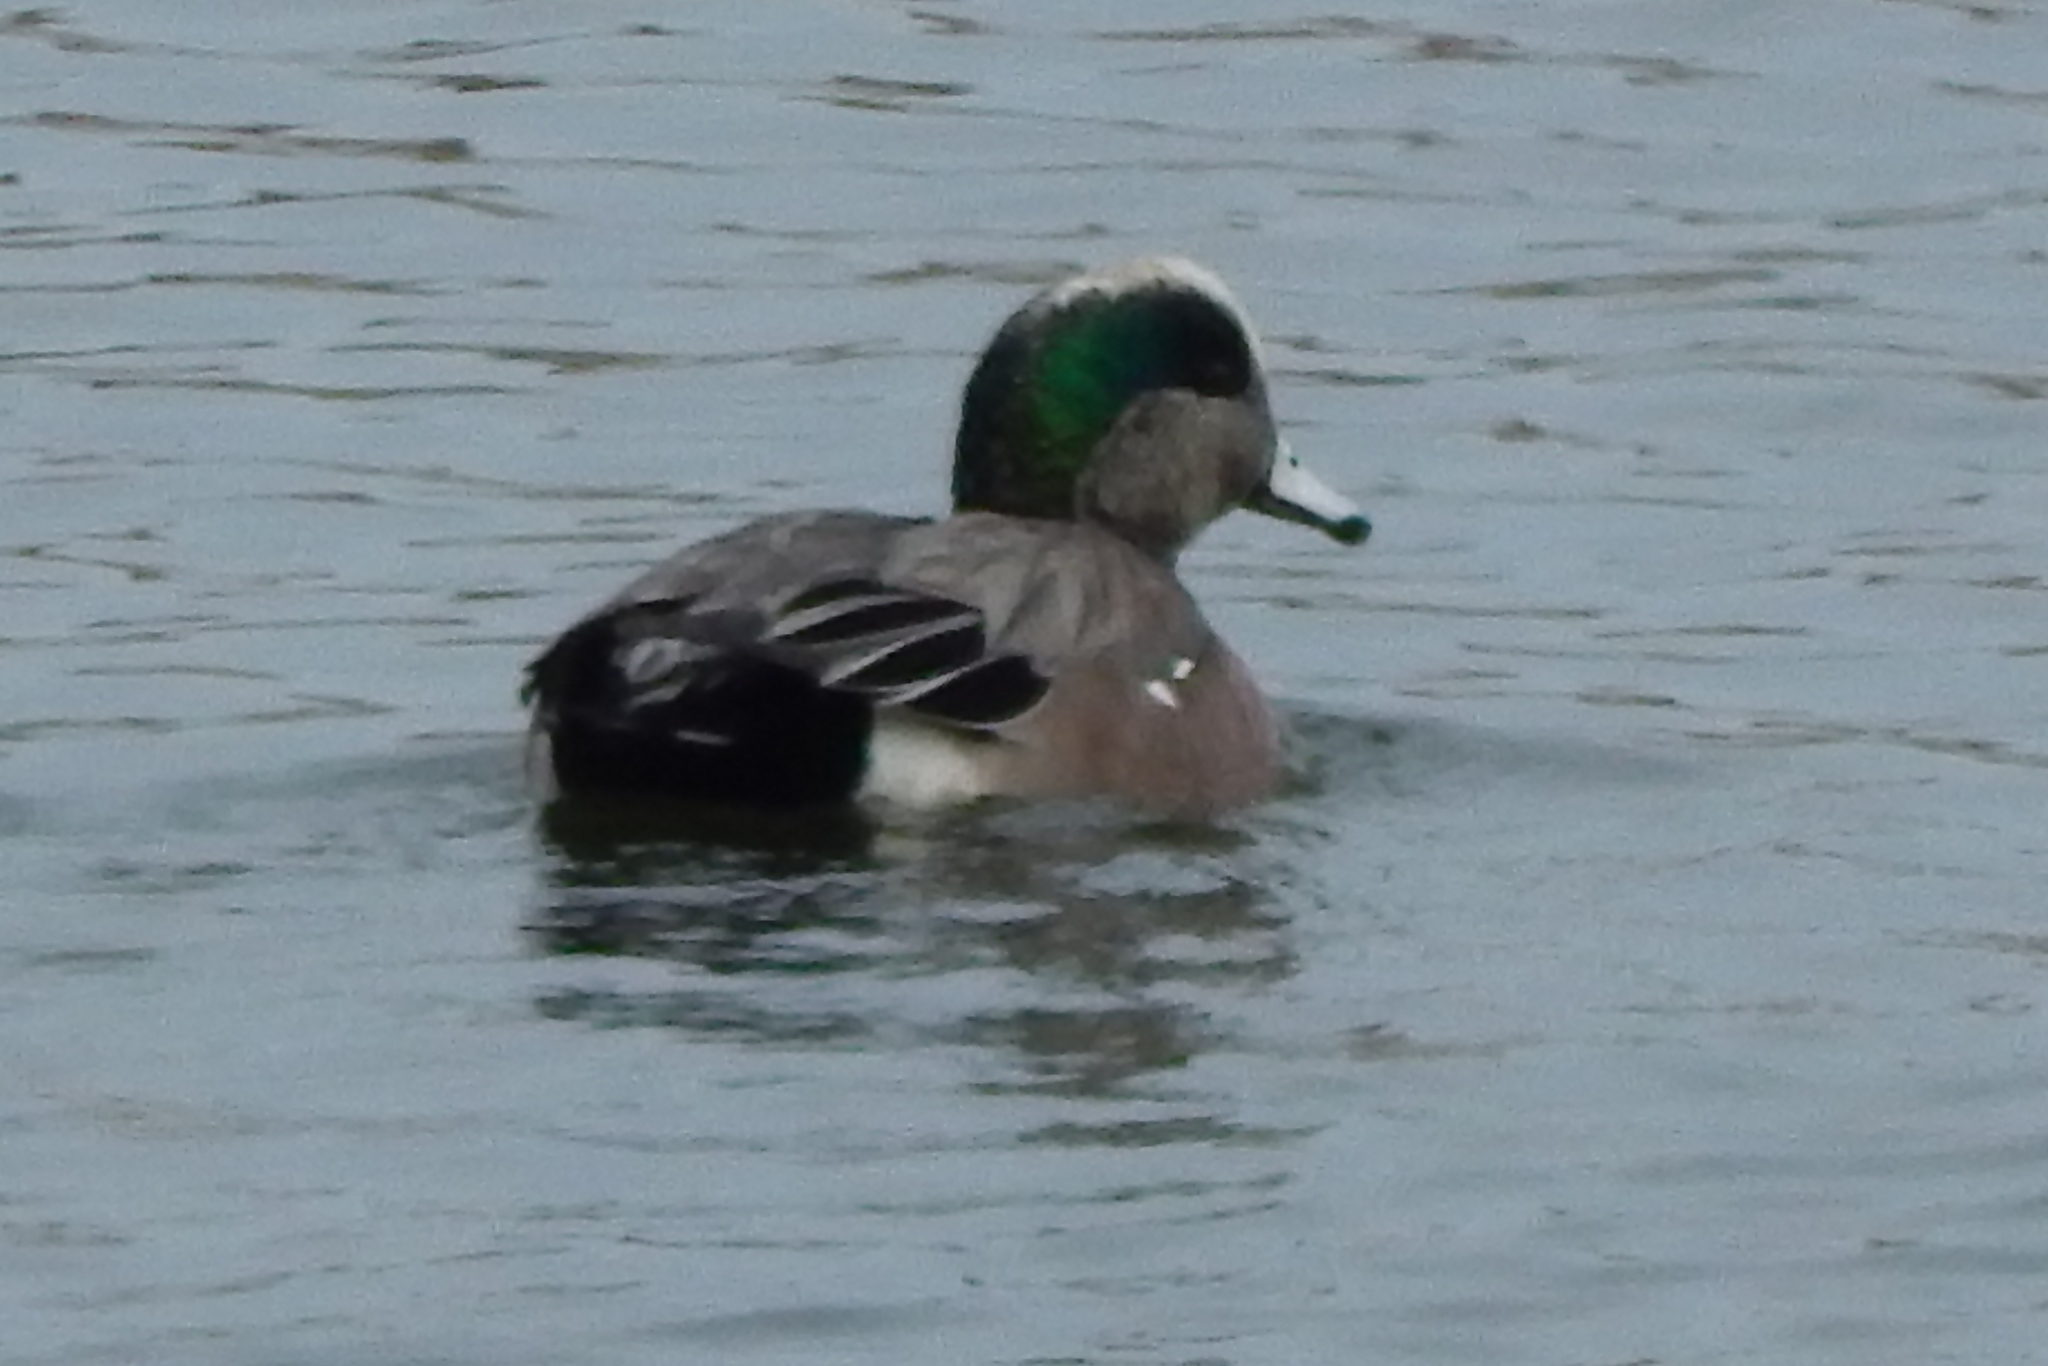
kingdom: Animalia
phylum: Chordata
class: Aves
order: Anseriformes
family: Anatidae
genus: Mareca
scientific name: Mareca americana
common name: American wigeon
